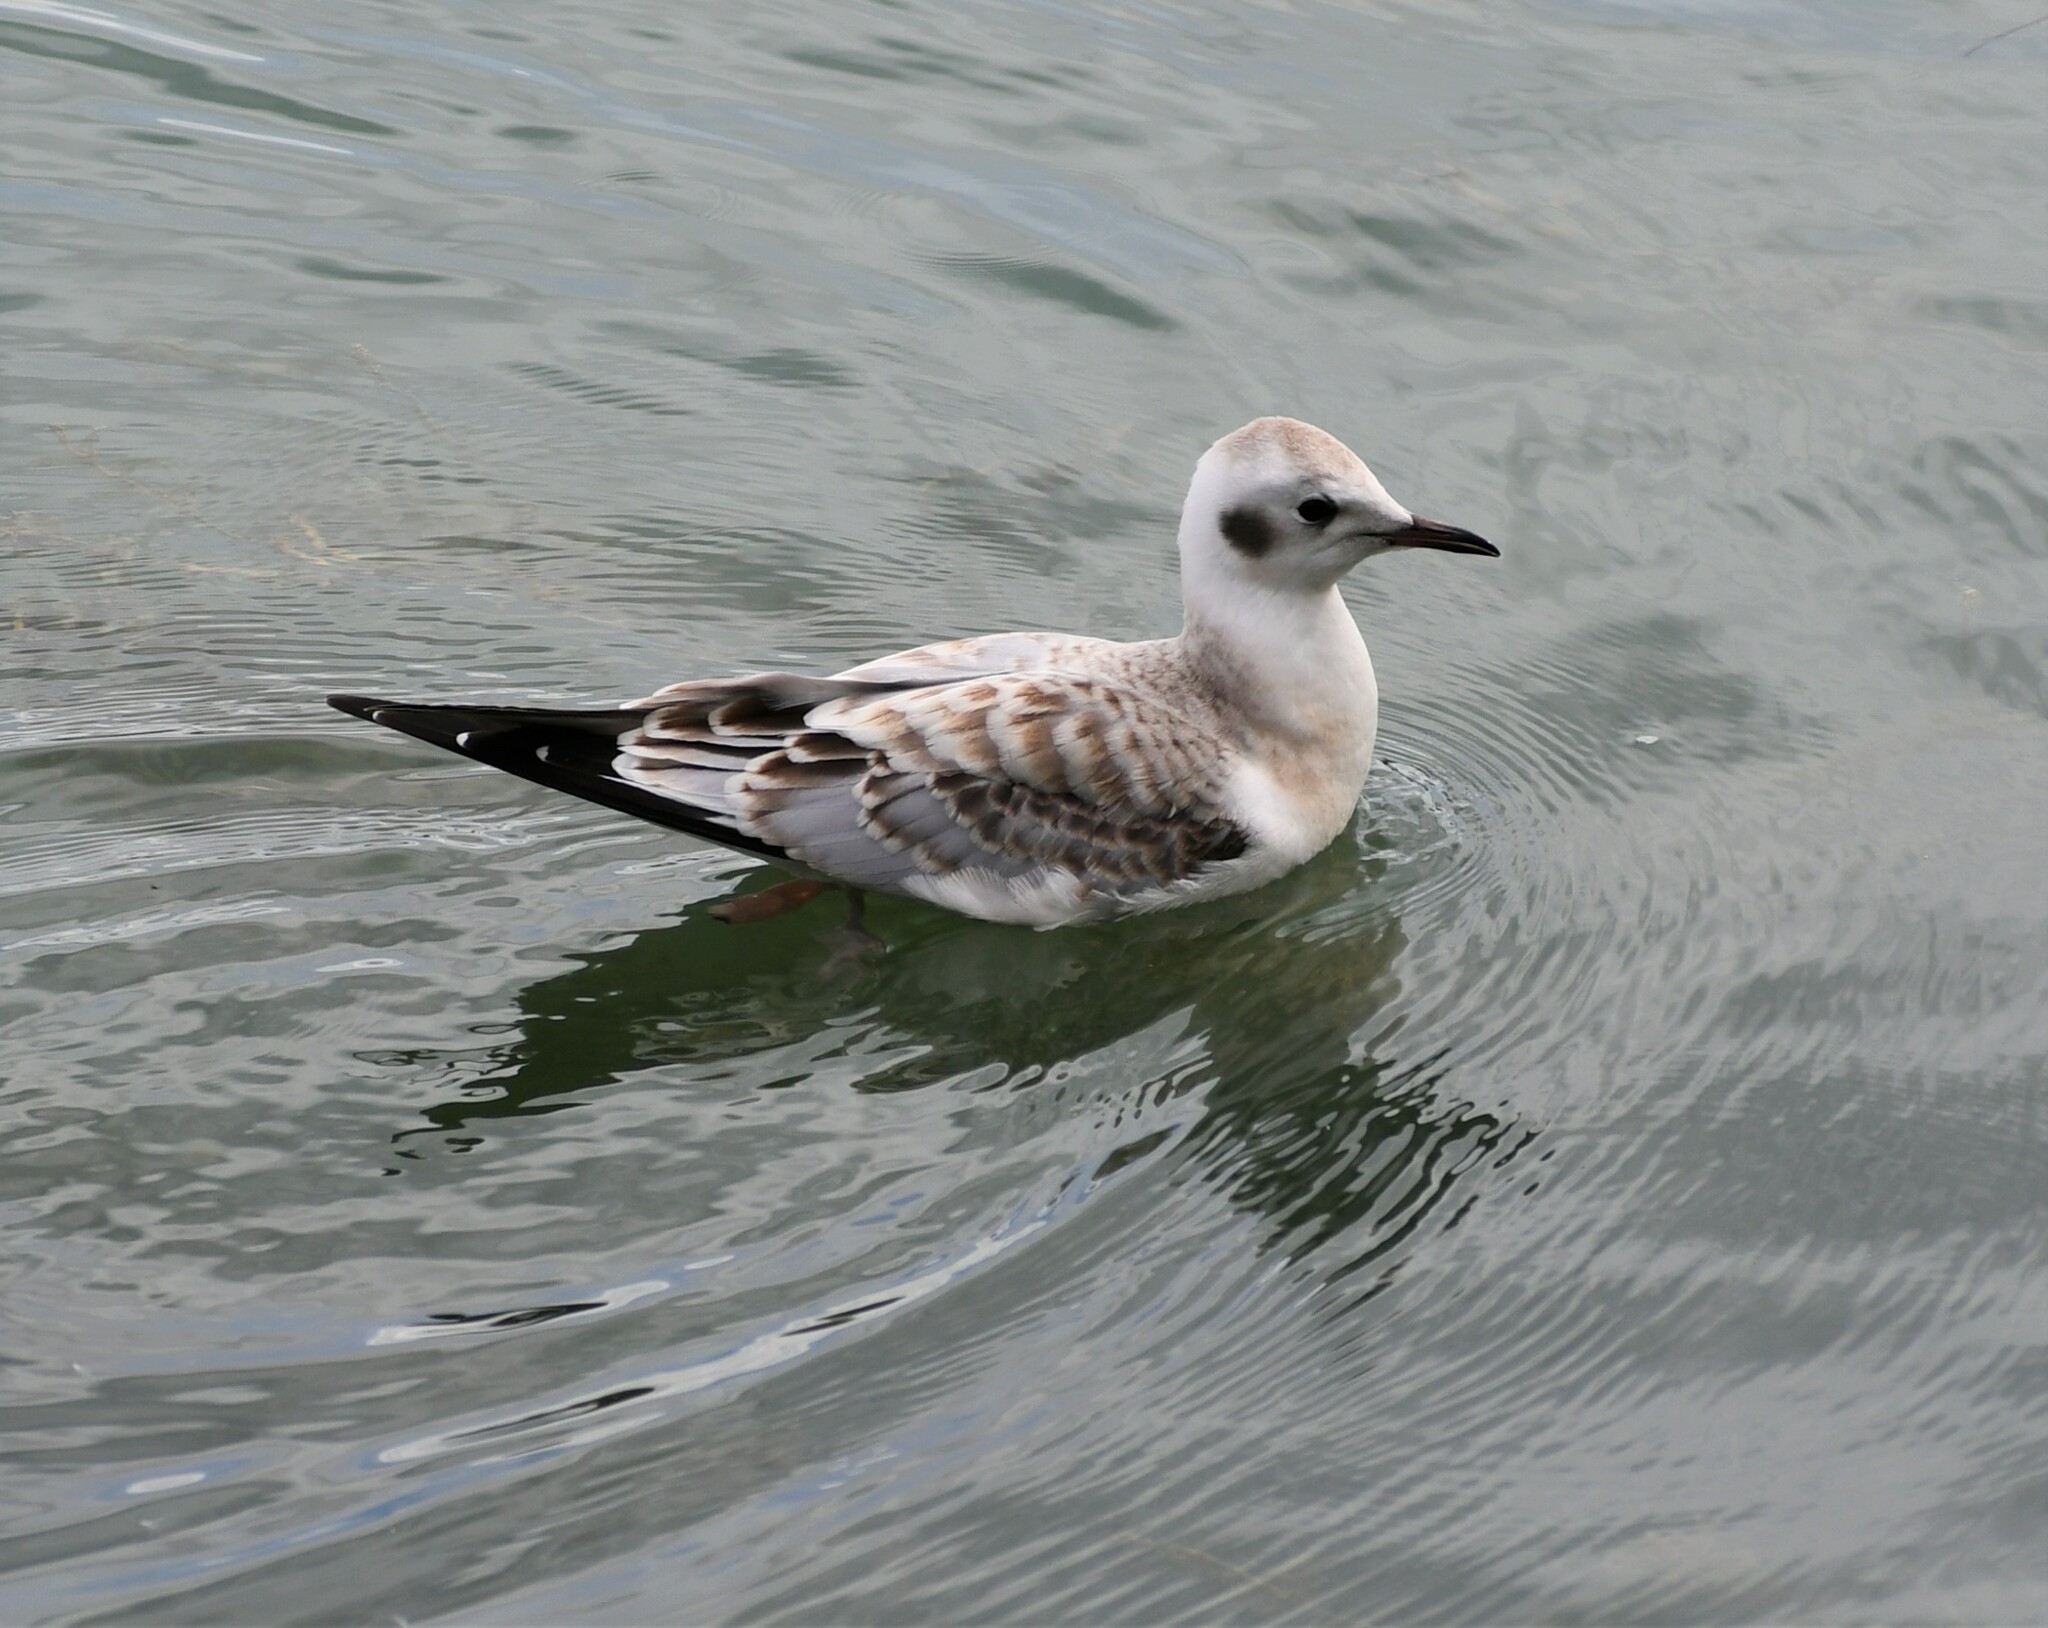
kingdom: Animalia
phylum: Chordata
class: Aves
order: Charadriiformes
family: Laridae
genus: Chroicocephalus
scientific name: Chroicocephalus philadelphia
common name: Bonaparte's gull
